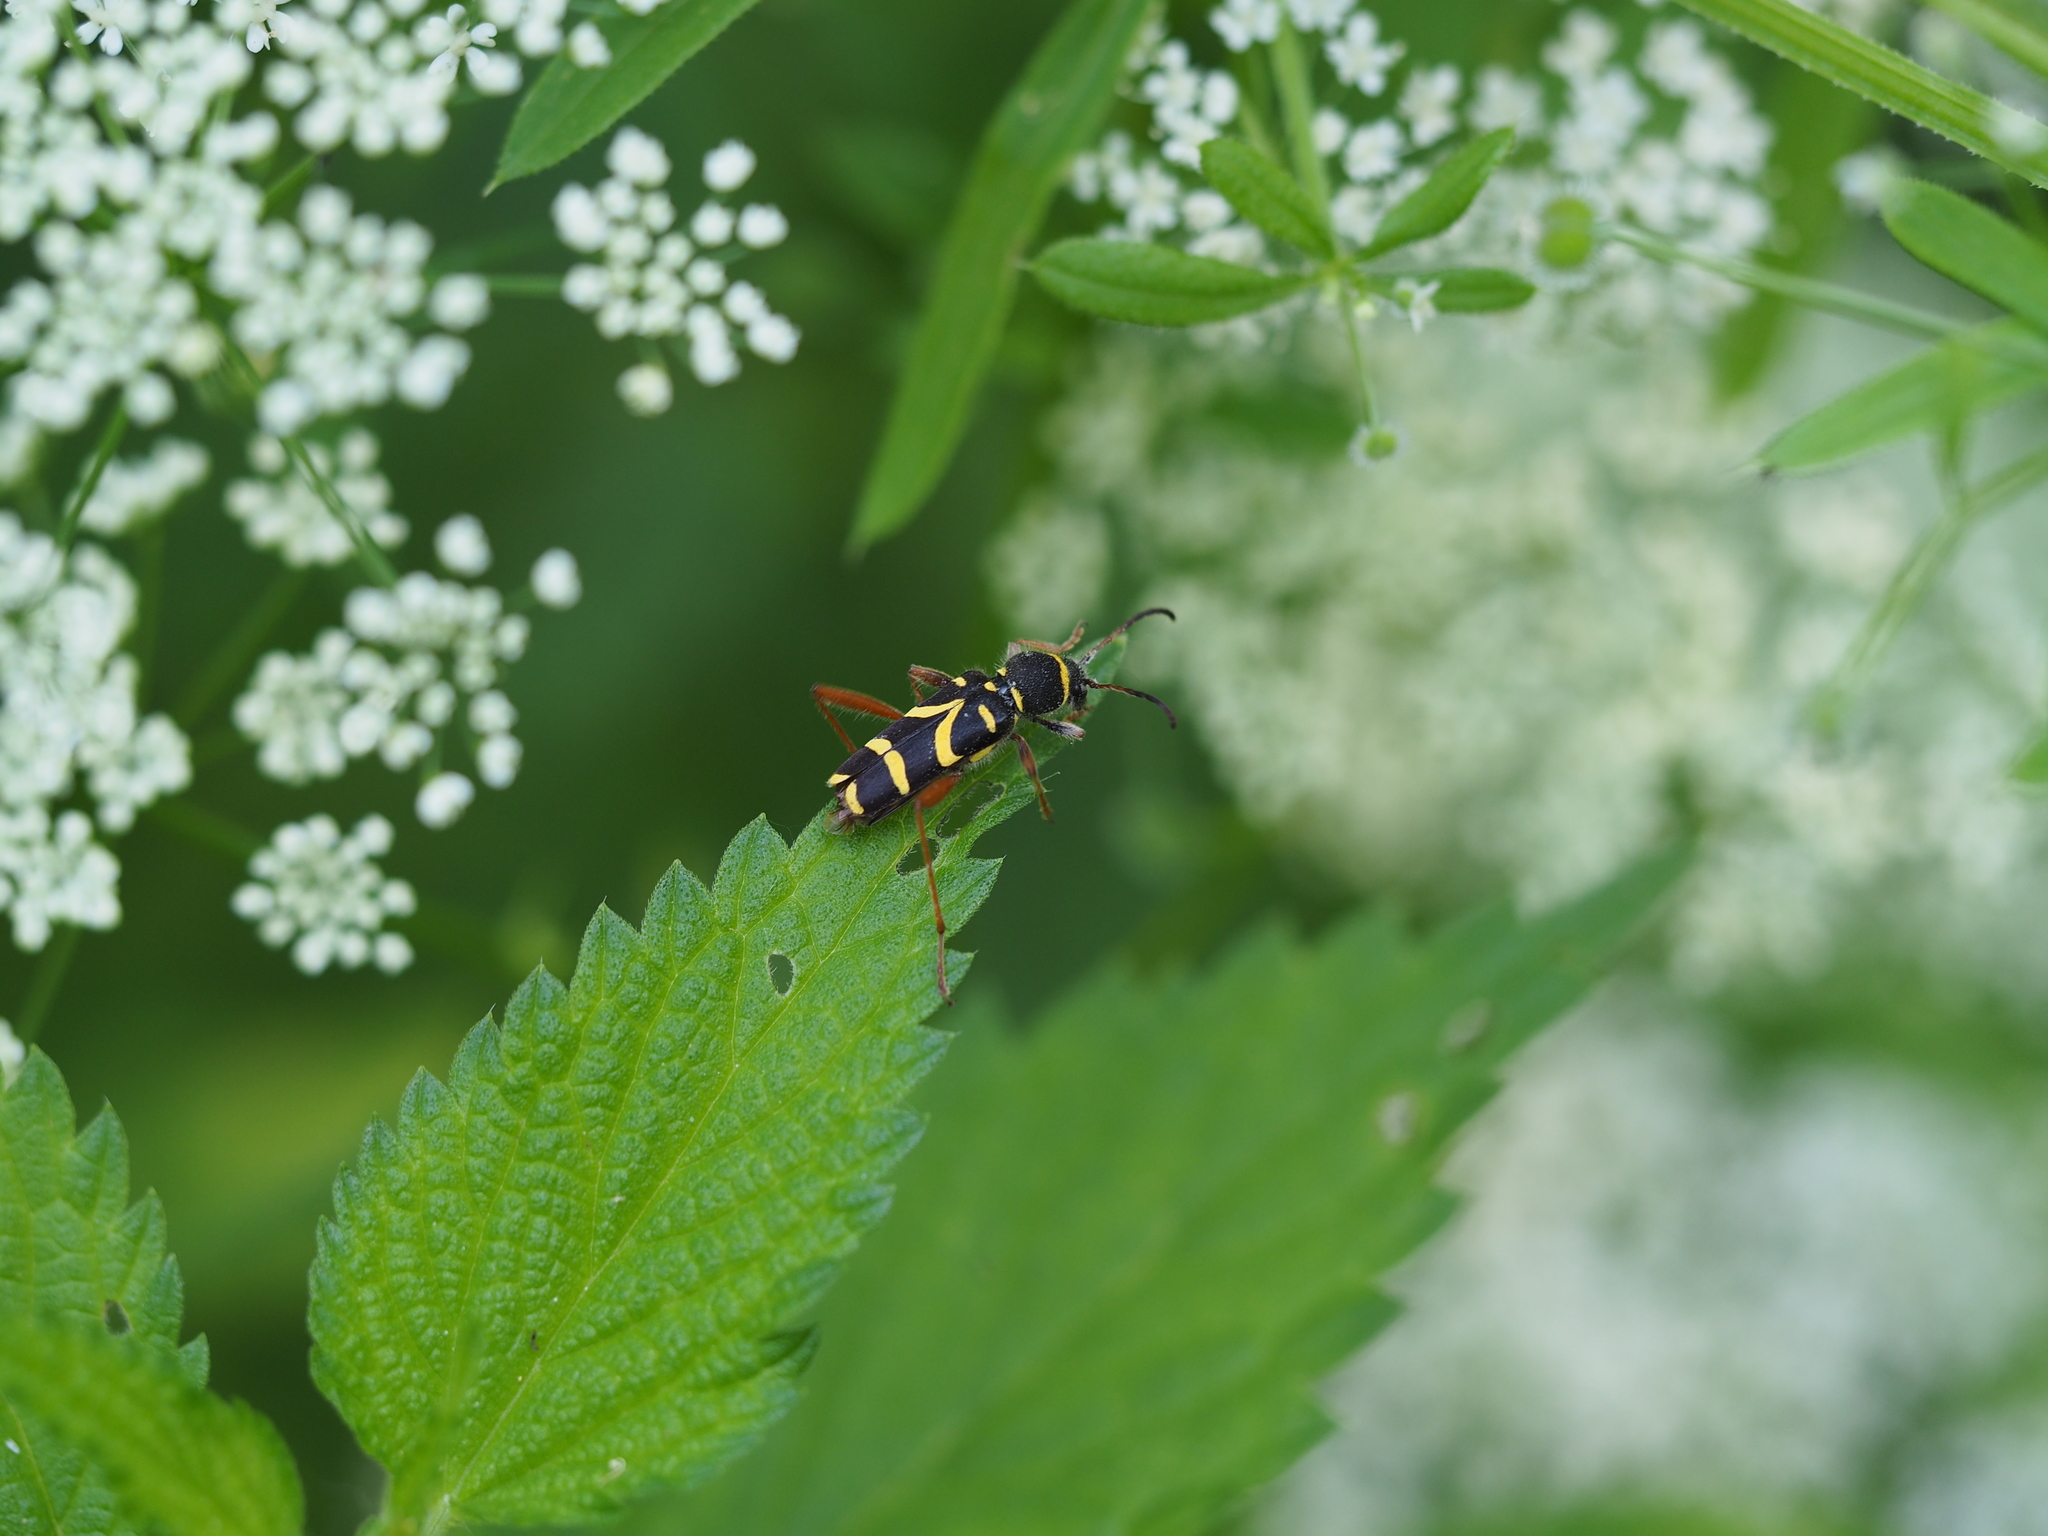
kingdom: Animalia
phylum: Arthropoda
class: Insecta
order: Coleoptera
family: Cerambycidae
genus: Clytus
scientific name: Clytus arietis
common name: Wasp beetle
